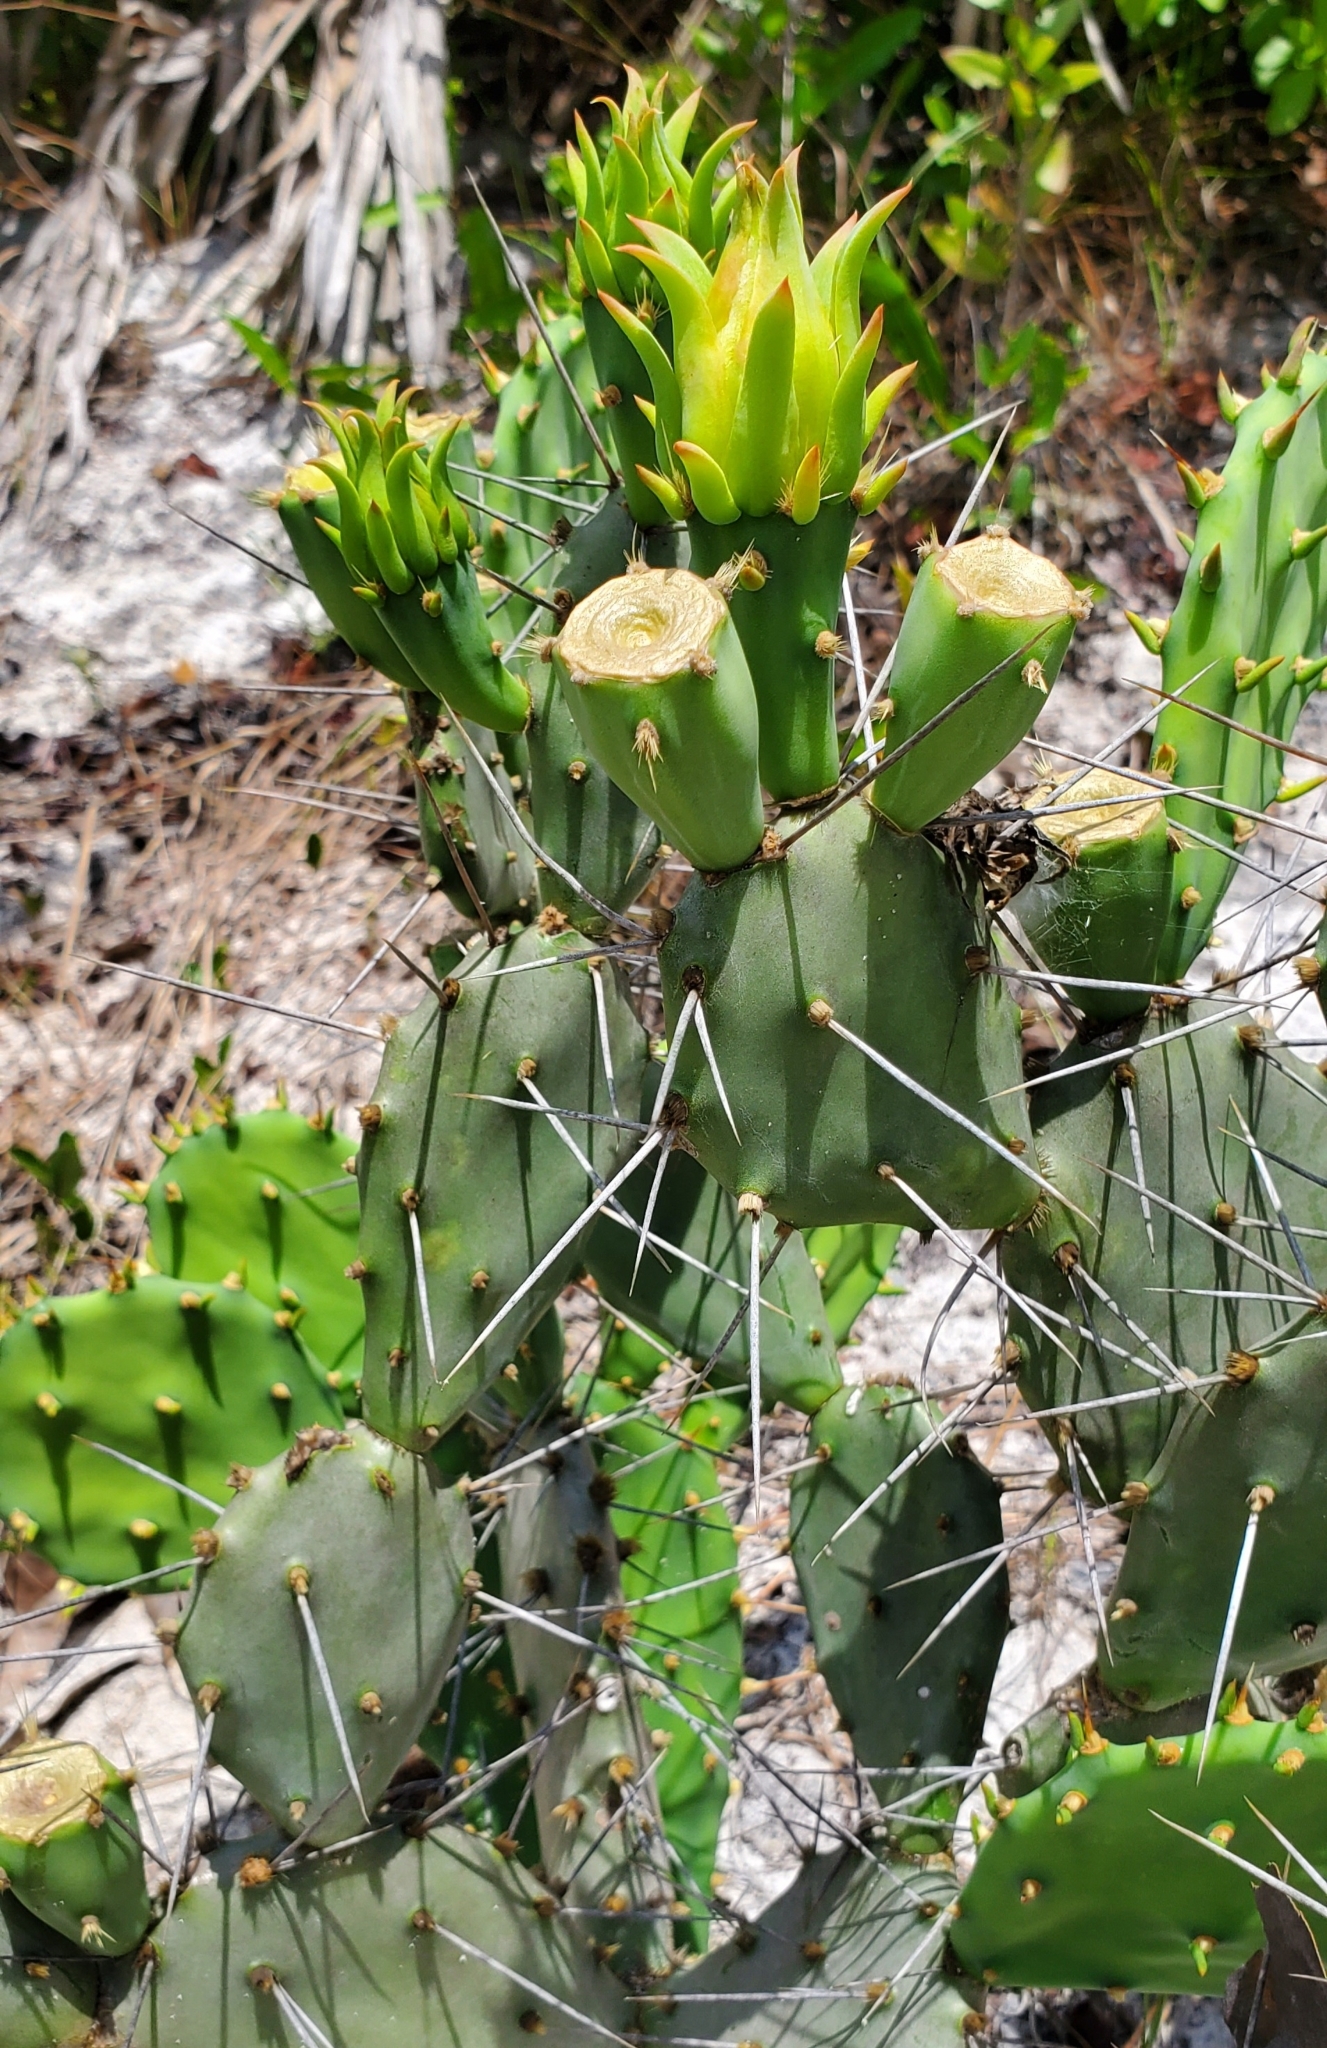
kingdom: Plantae
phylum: Tracheophyta
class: Magnoliopsida
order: Caryophyllales
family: Cactaceae
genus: Opuntia
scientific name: Opuntia austrina
